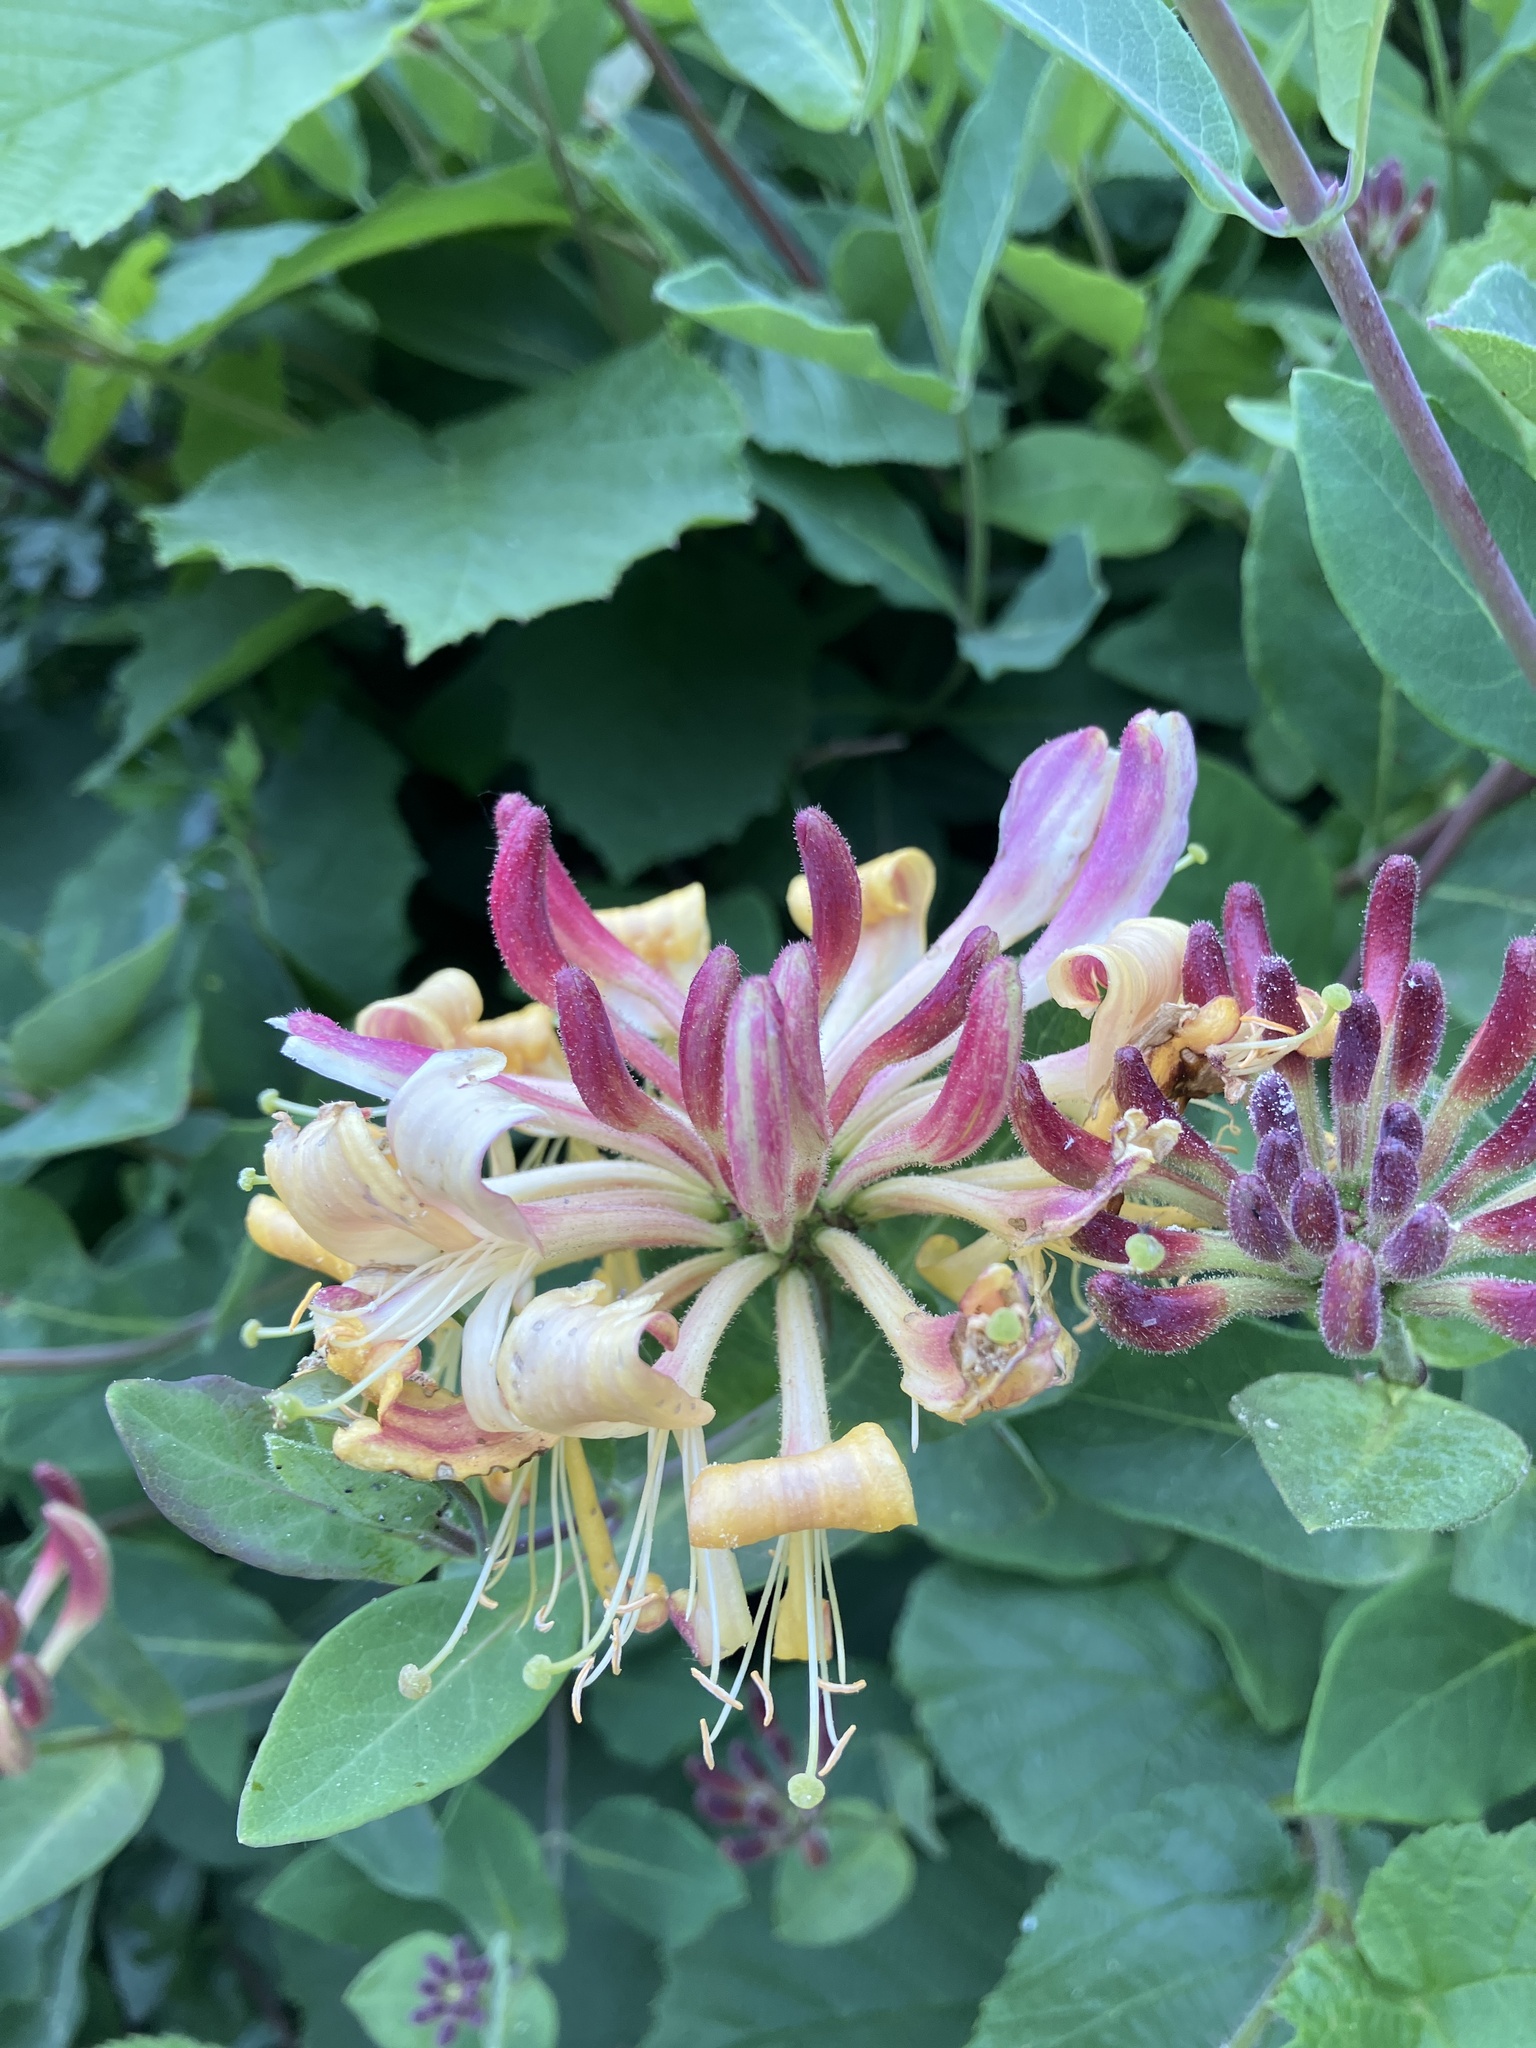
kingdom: Plantae
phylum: Tracheophyta
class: Magnoliopsida
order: Dipsacales
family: Caprifoliaceae
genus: Lonicera
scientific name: Lonicera periclymenum
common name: European honeysuckle
